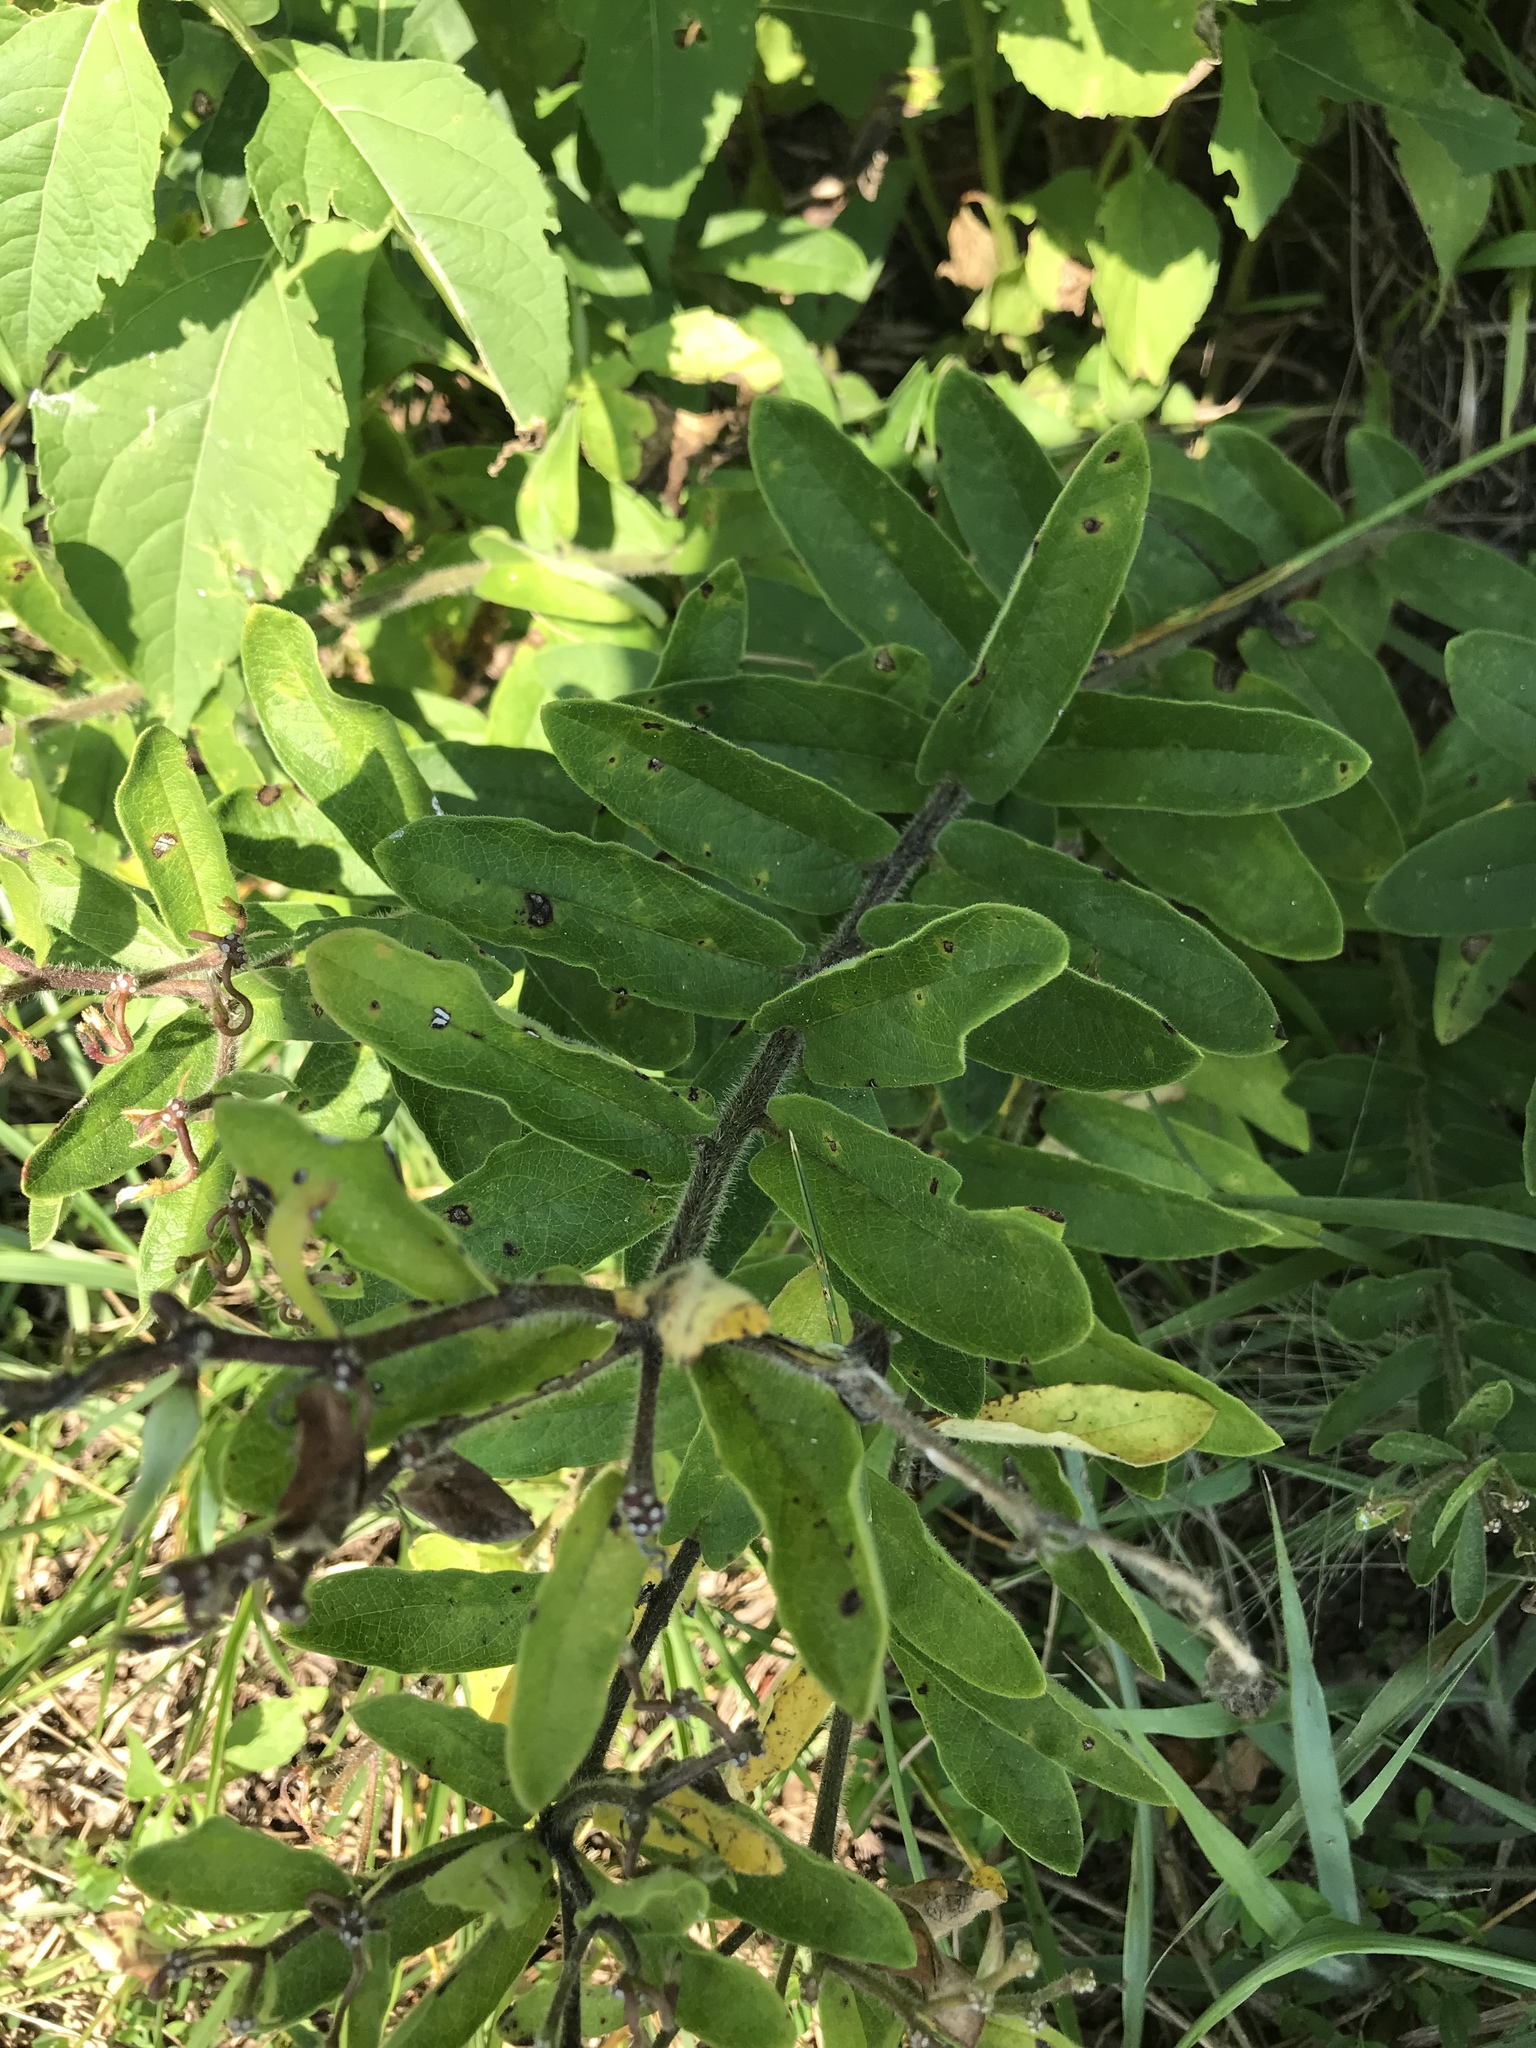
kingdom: Plantae
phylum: Tracheophyta
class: Magnoliopsida
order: Gentianales
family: Apocynaceae
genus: Asclepias
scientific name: Asclepias tuberosa
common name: Butterfly milkweed
